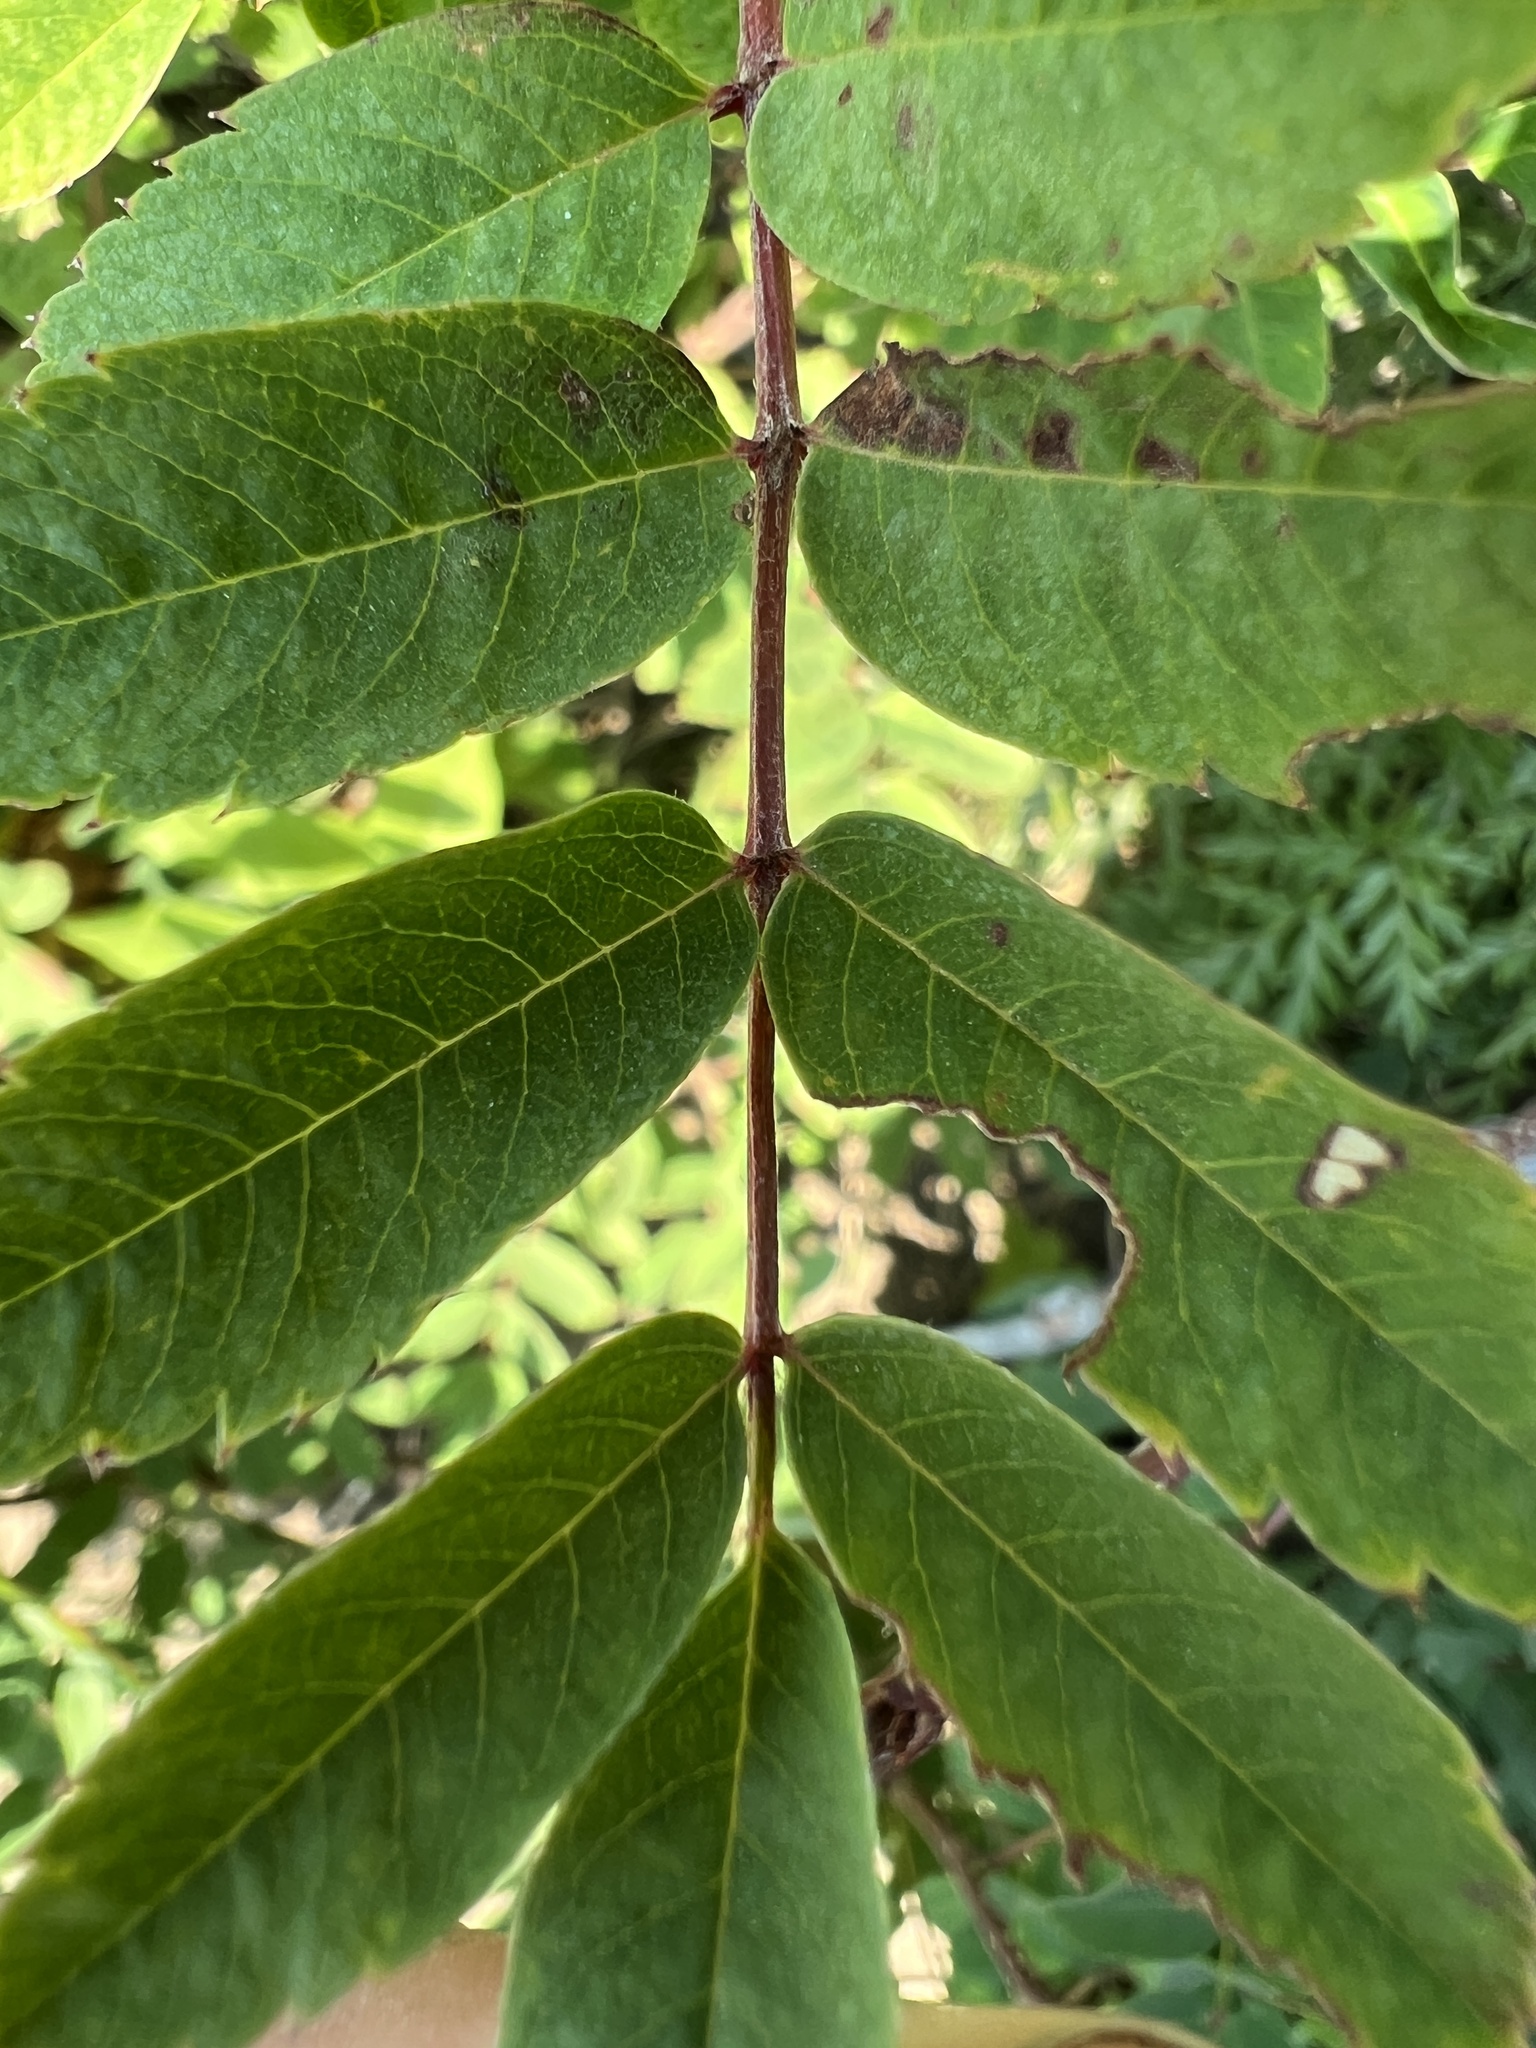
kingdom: Plantae
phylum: Tracheophyta
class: Magnoliopsida
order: Rosales
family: Rosaceae
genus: Sorbus
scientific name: Sorbus sitchensis
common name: Sitka mountain-ash
